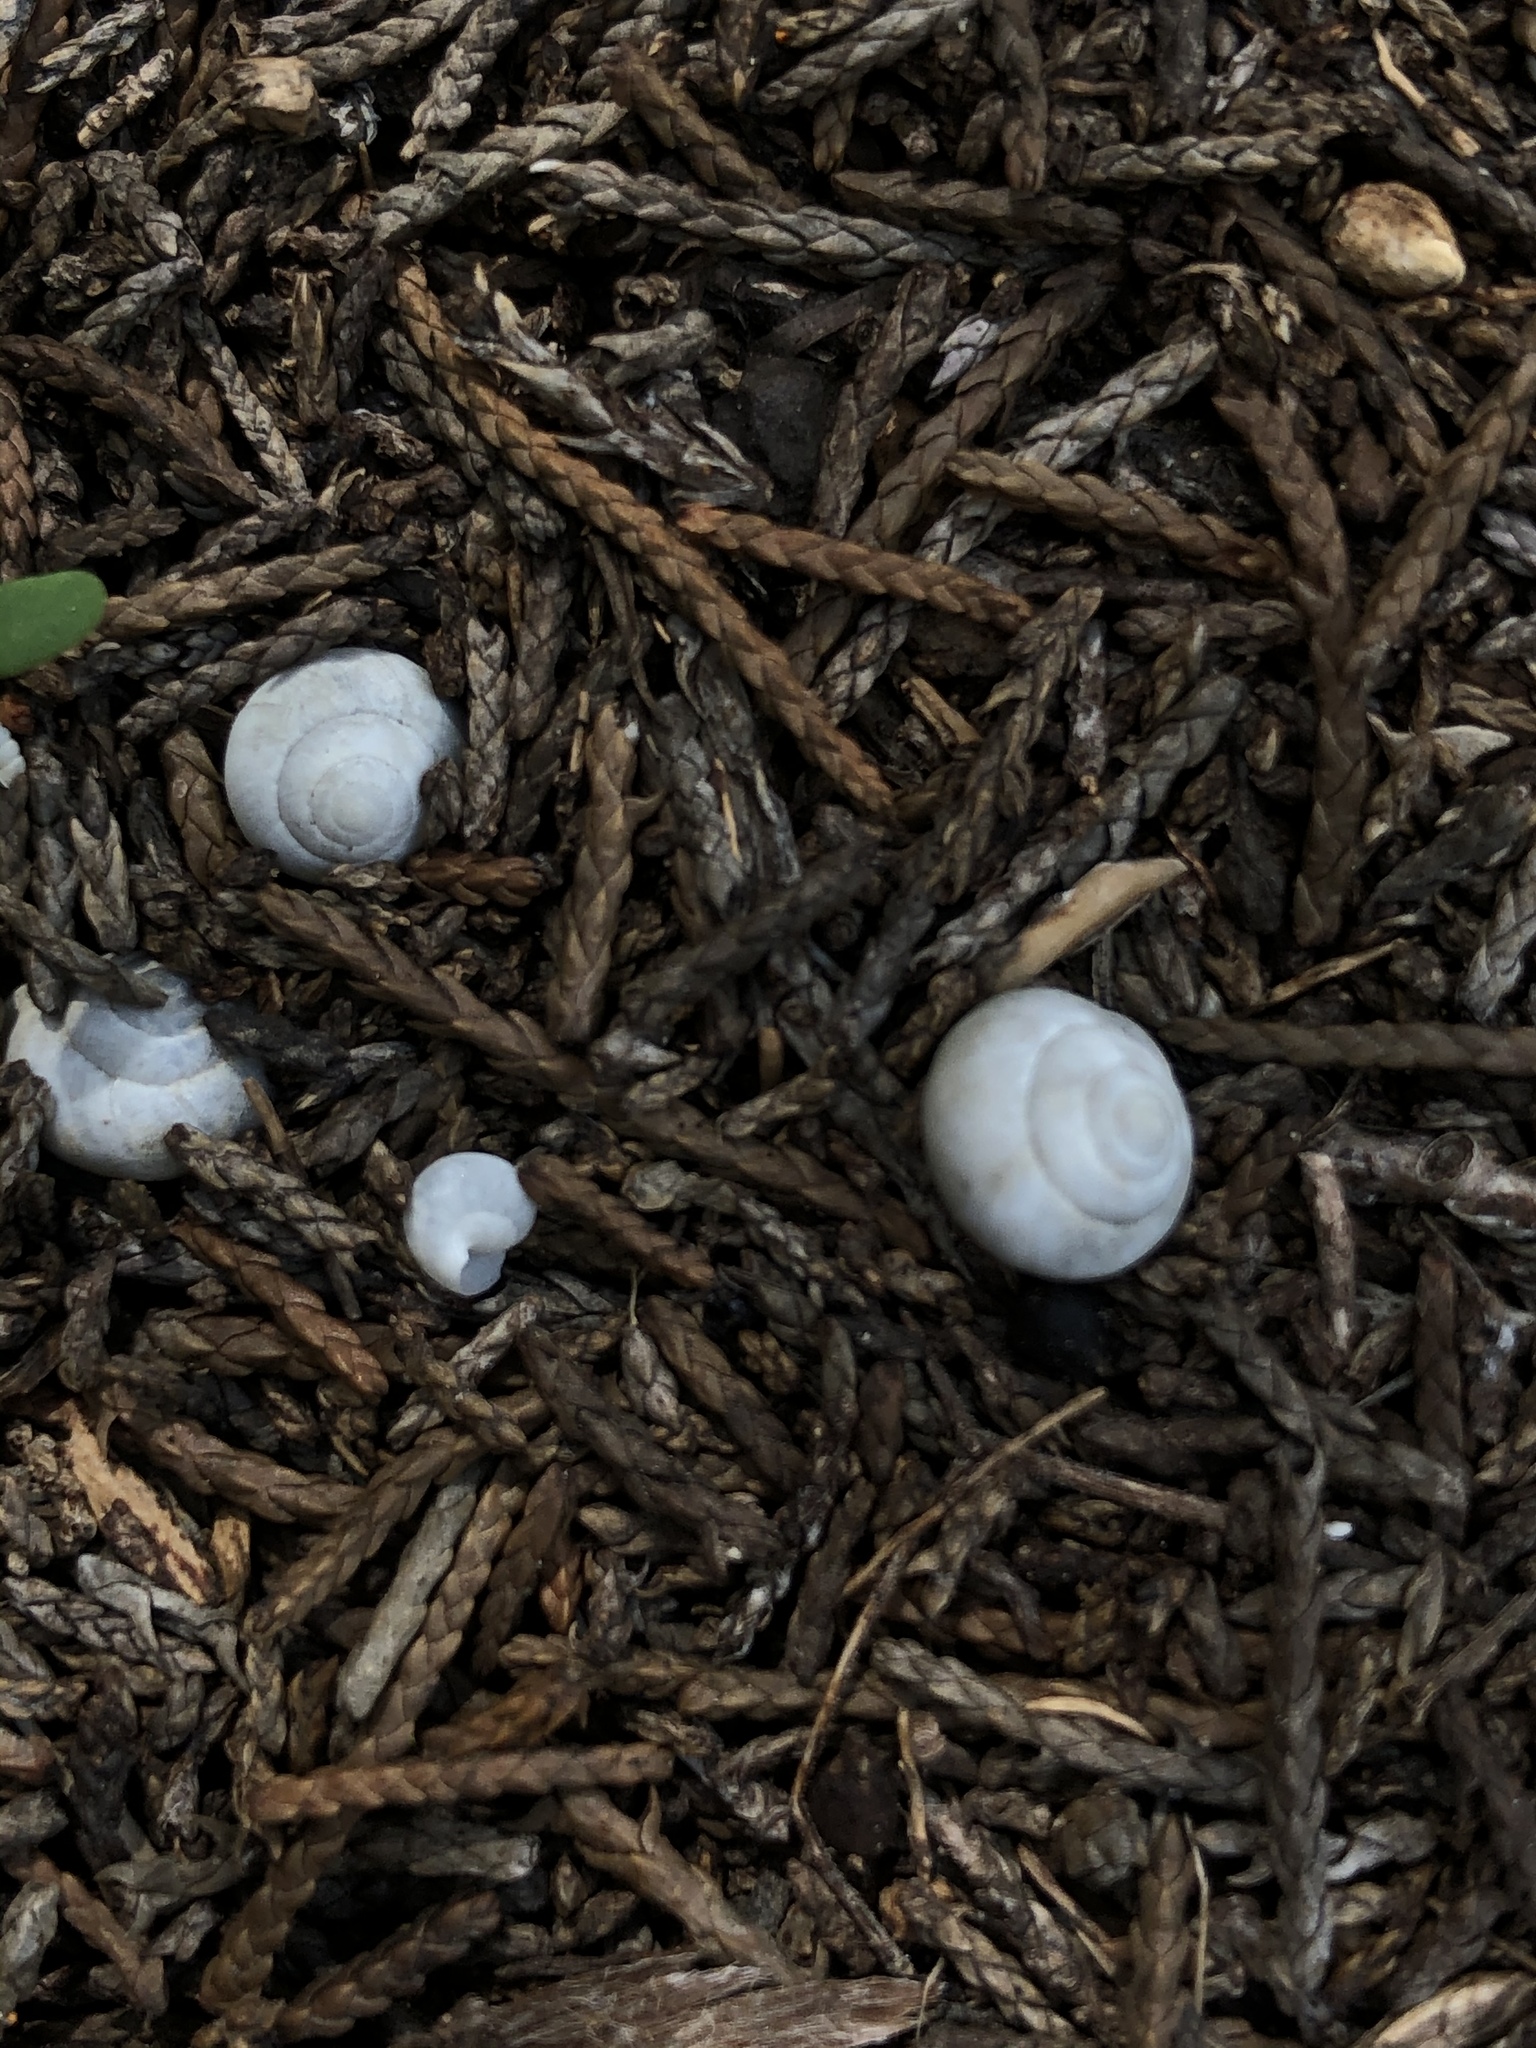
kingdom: Animalia
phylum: Mollusca
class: Gastropoda
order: Cycloneritida
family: Helicinidae
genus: Helicina
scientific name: Helicina orbiculata
